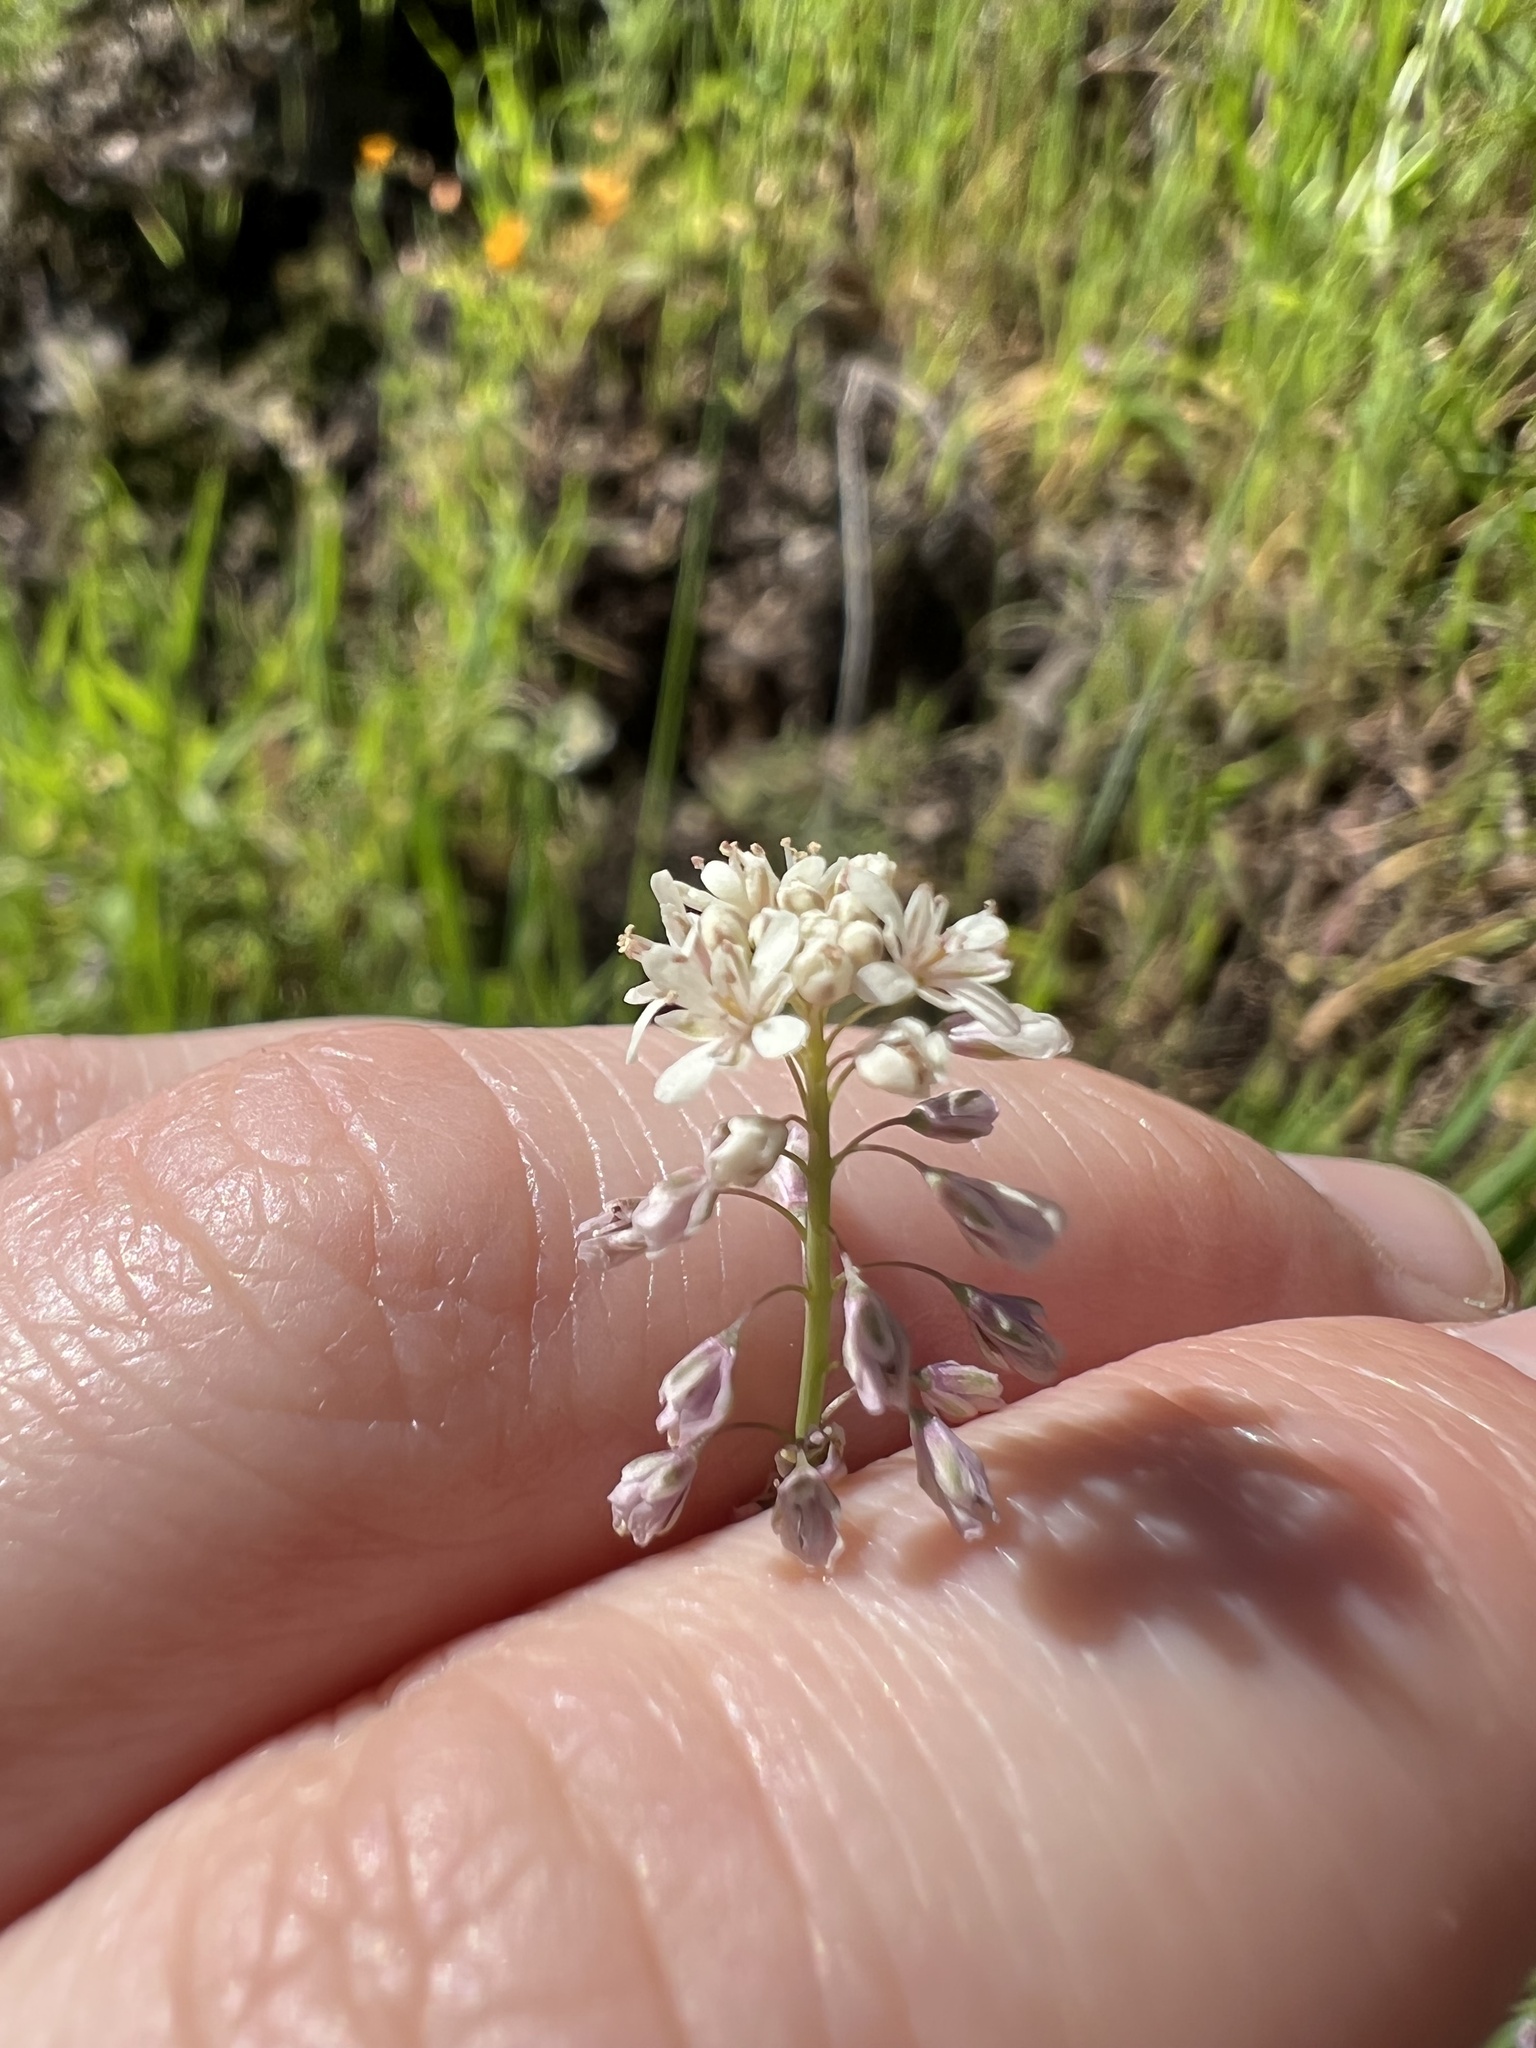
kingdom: Plantae
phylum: Tracheophyta
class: Magnoliopsida
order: Brassicales
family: Brassicaceae
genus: Thysanocarpus
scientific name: Thysanocarpus curvipes
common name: Sand fringepod
